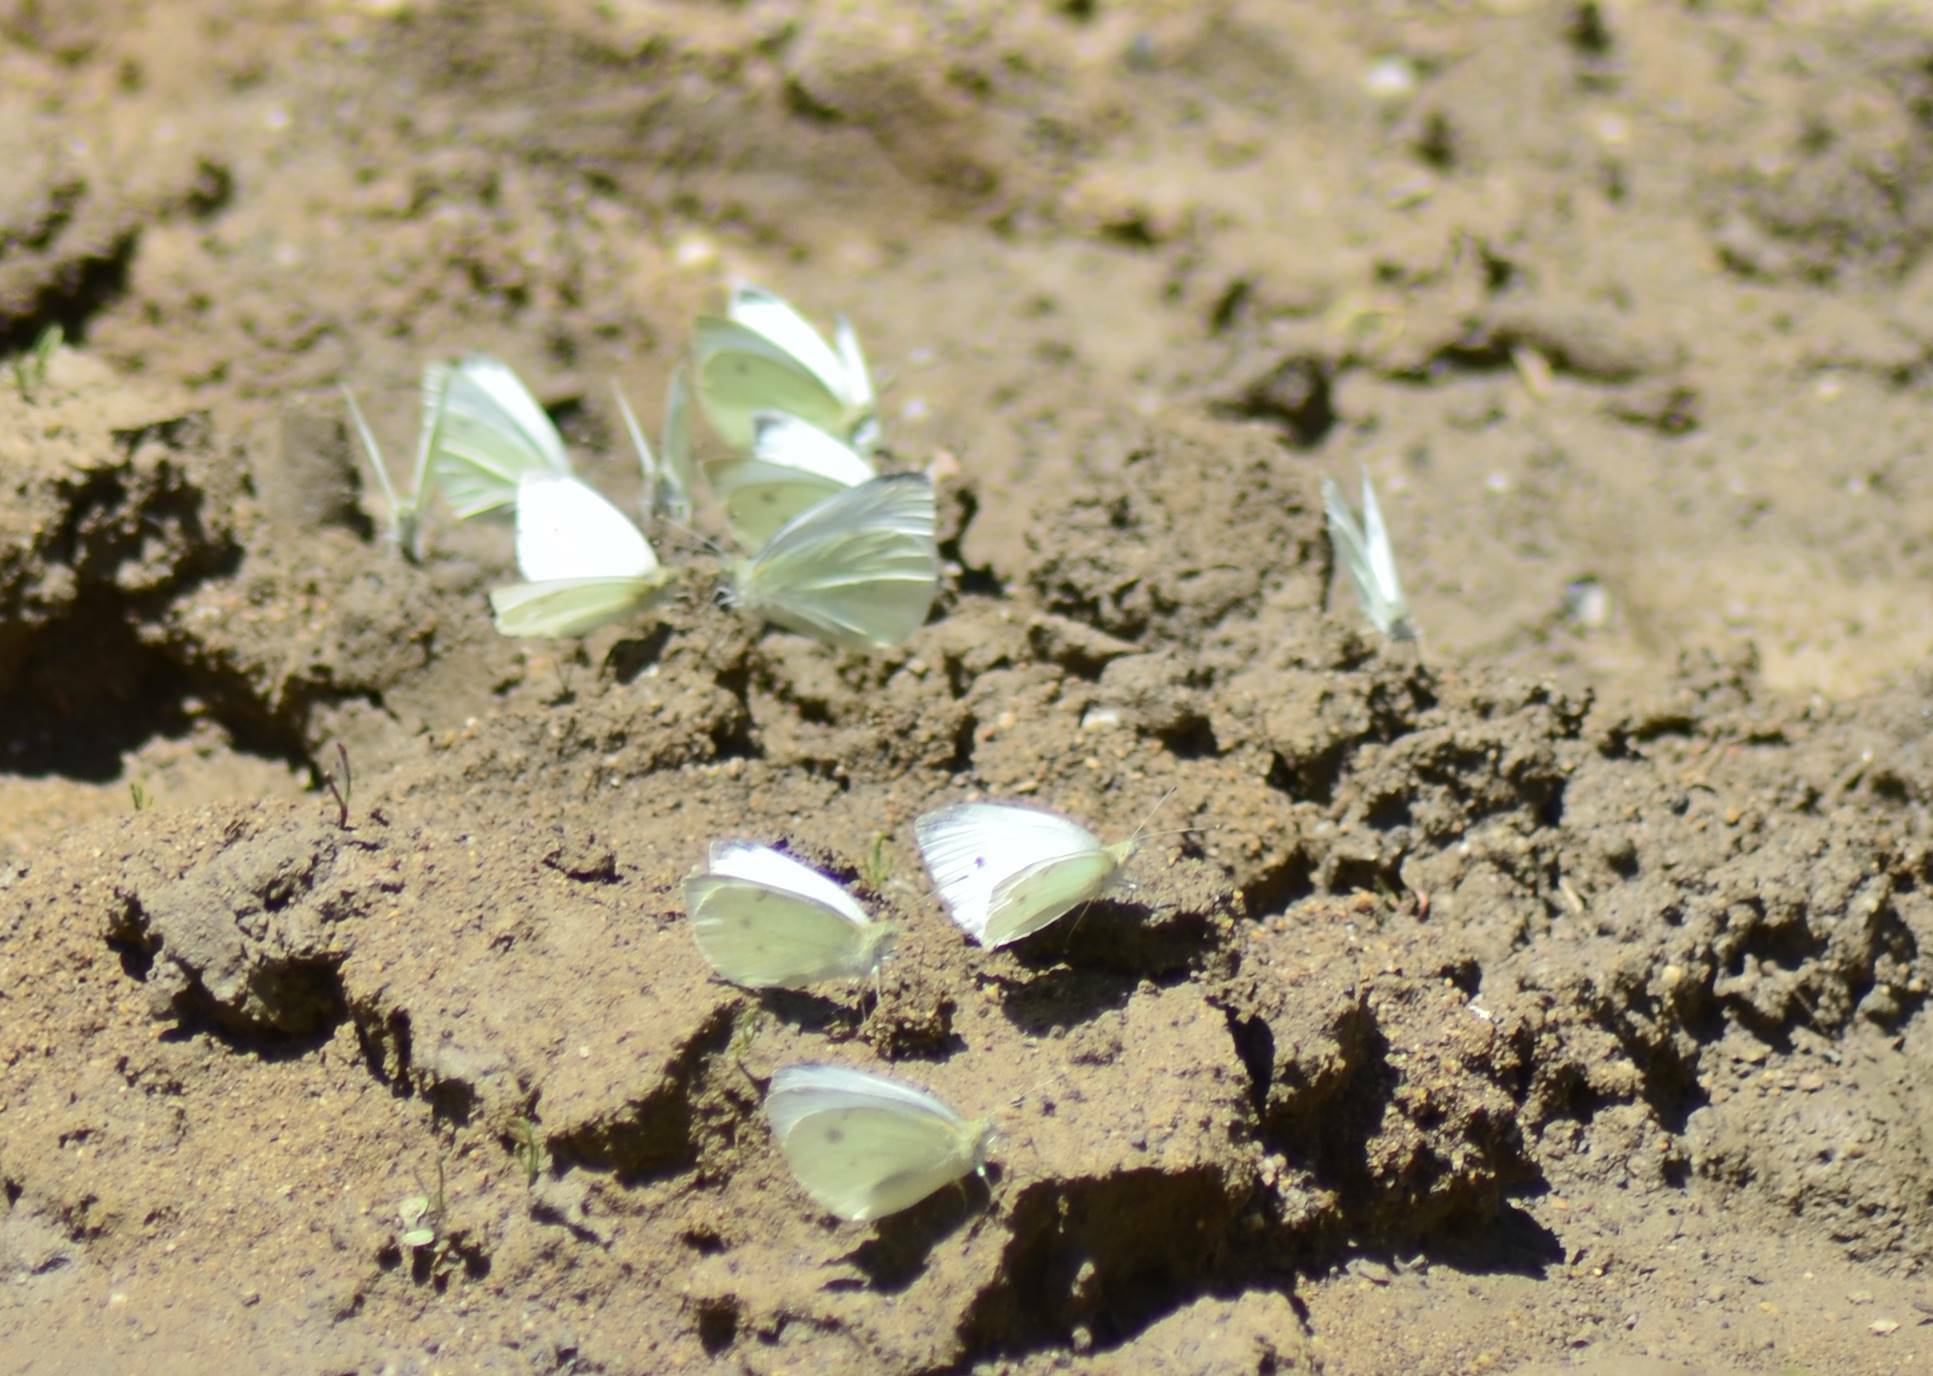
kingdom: Animalia
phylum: Arthropoda
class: Insecta
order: Lepidoptera
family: Pieridae
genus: Pieris
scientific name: Pieris rapae
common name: Small white
